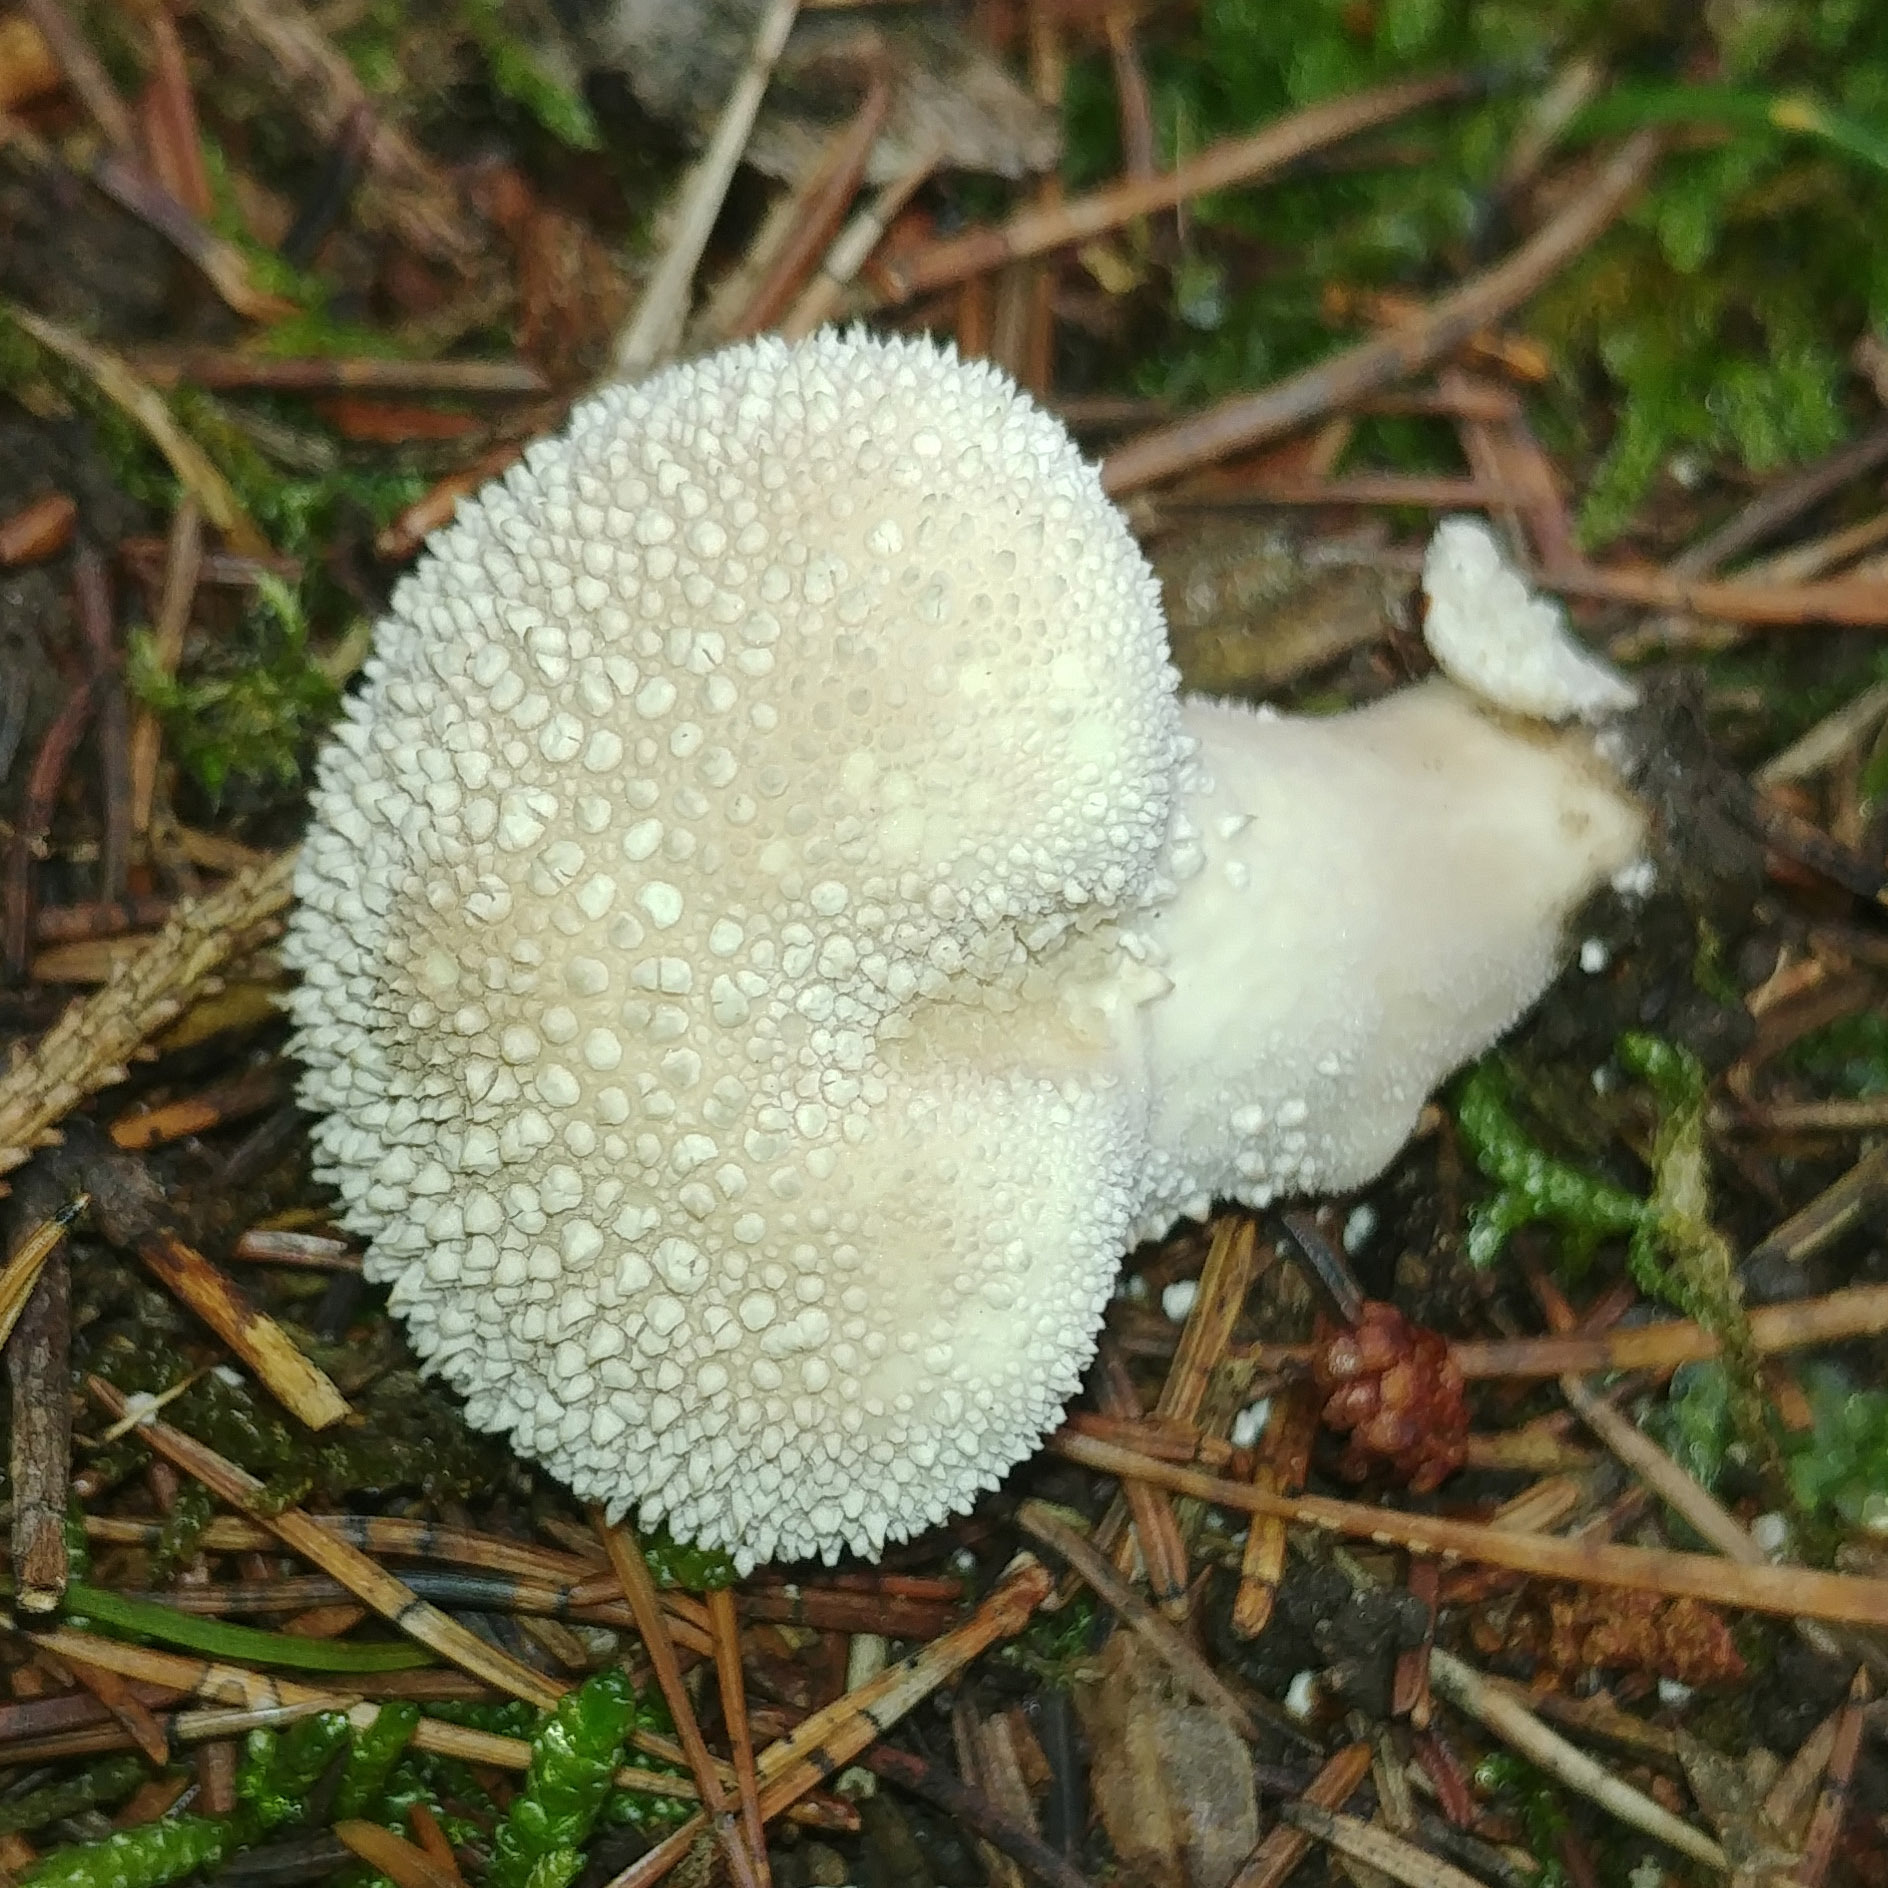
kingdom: Fungi
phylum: Basidiomycota
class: Agaricomycetes
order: Agaricales
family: Lycoperdaceae
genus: Lycoperdon
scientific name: Lycoperdon perlatum
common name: Common puffball
